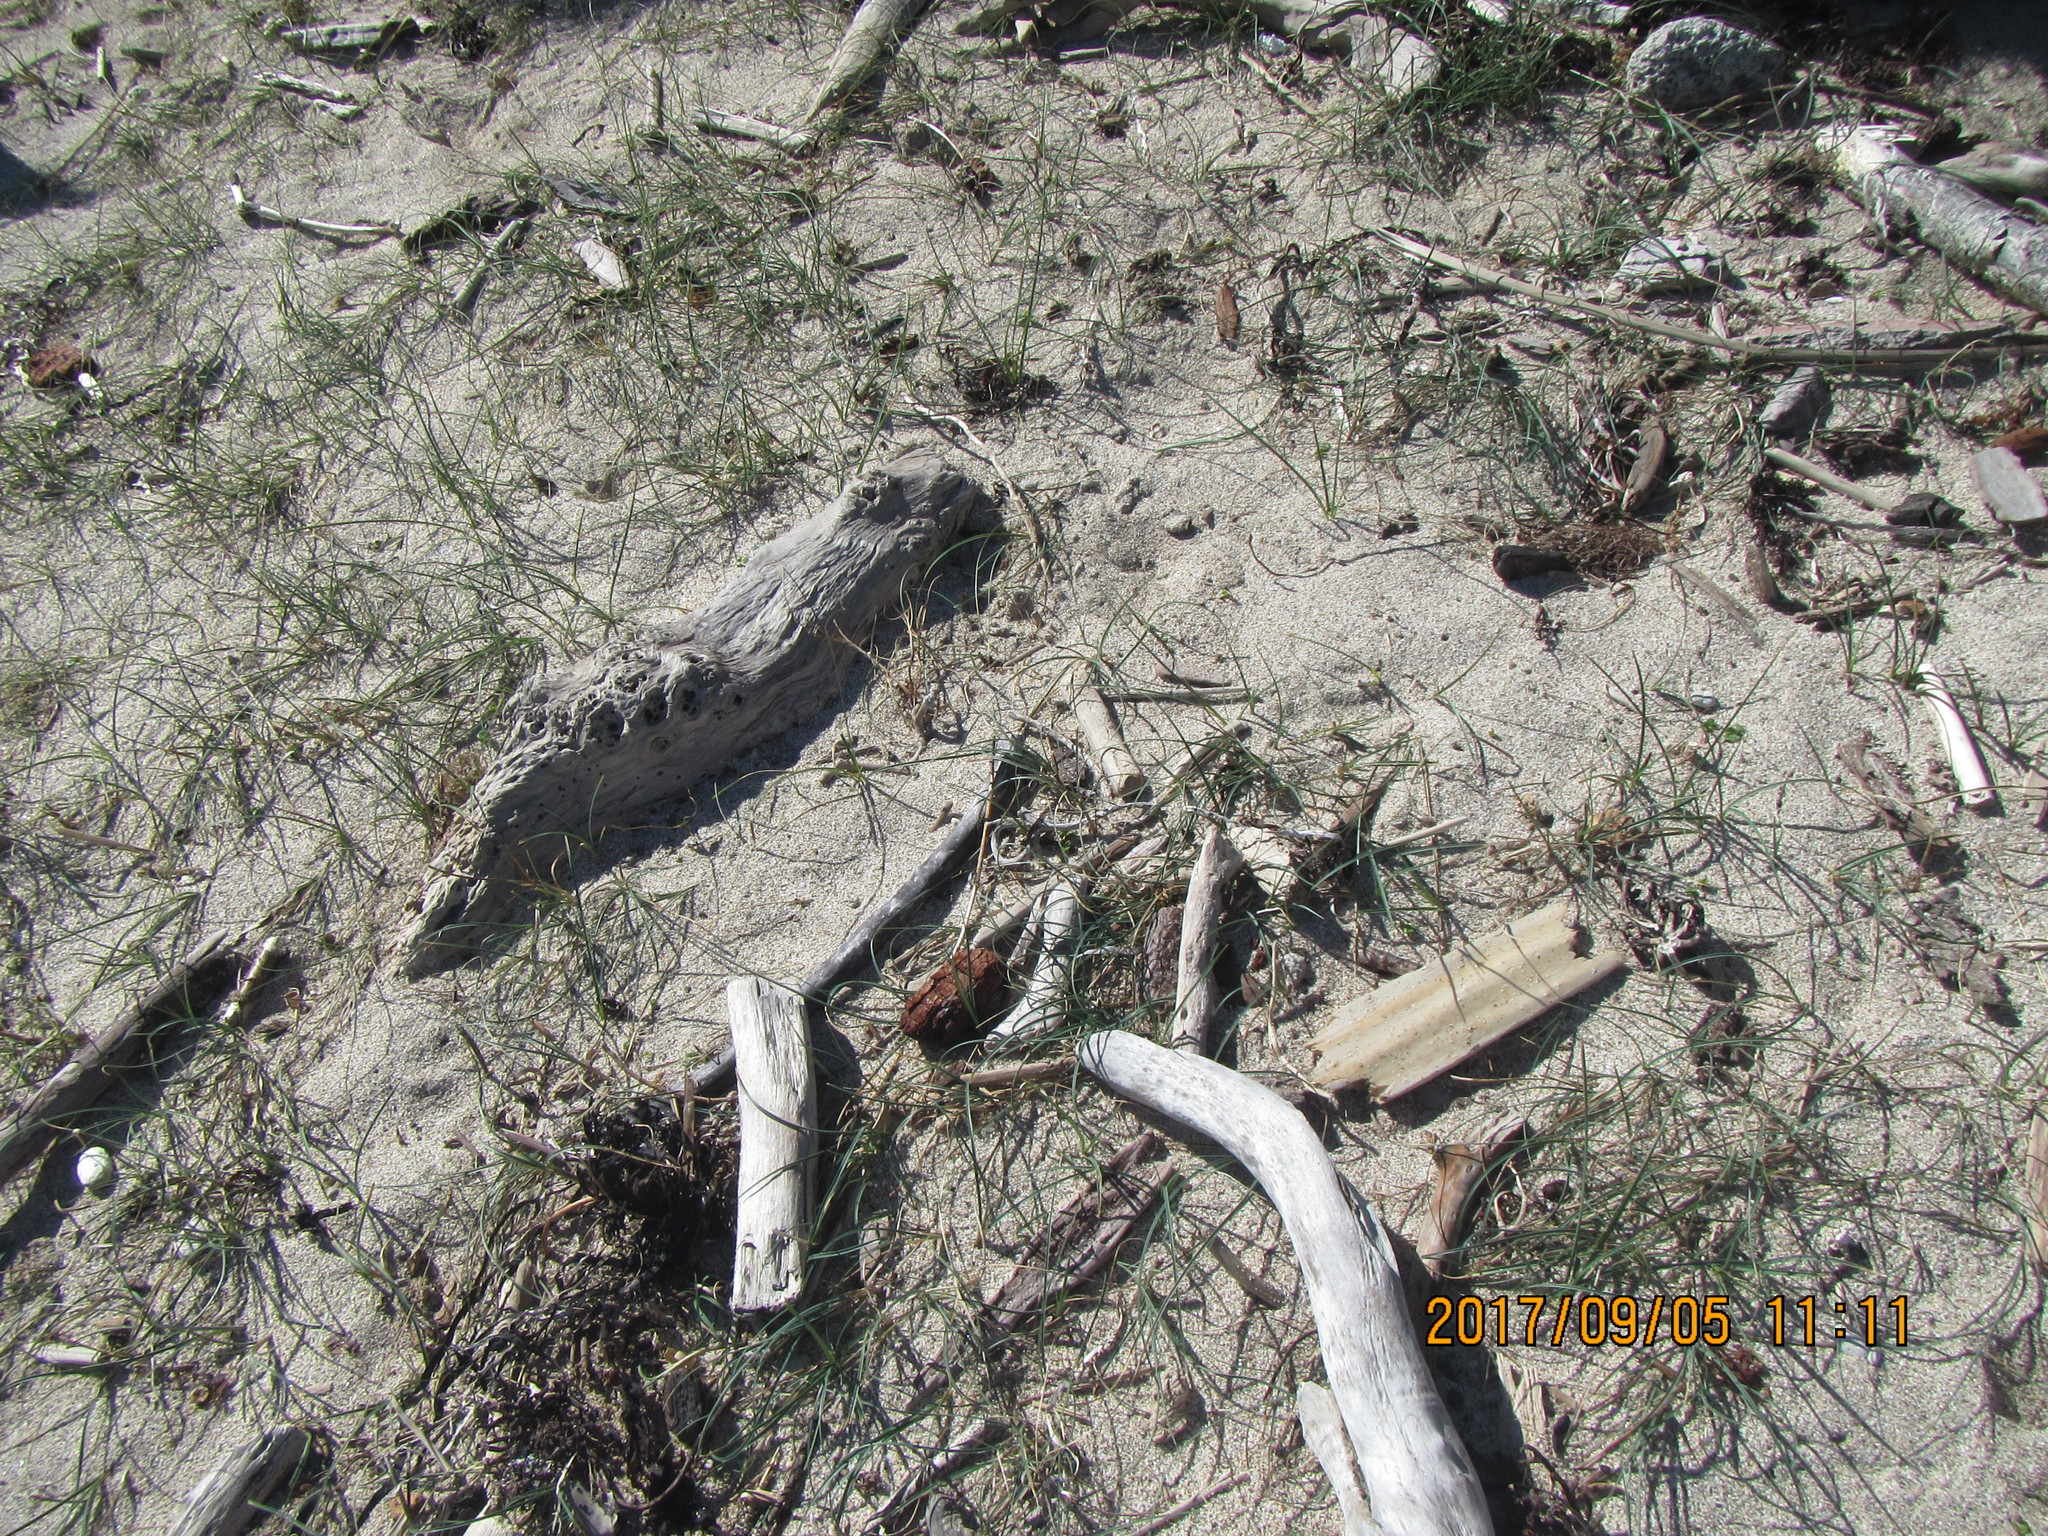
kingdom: Plantae
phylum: Tracheophyta
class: Liliopsida
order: Poales
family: Cyperaceae
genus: Carex
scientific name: Carex pumila
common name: Dwarf sedge
